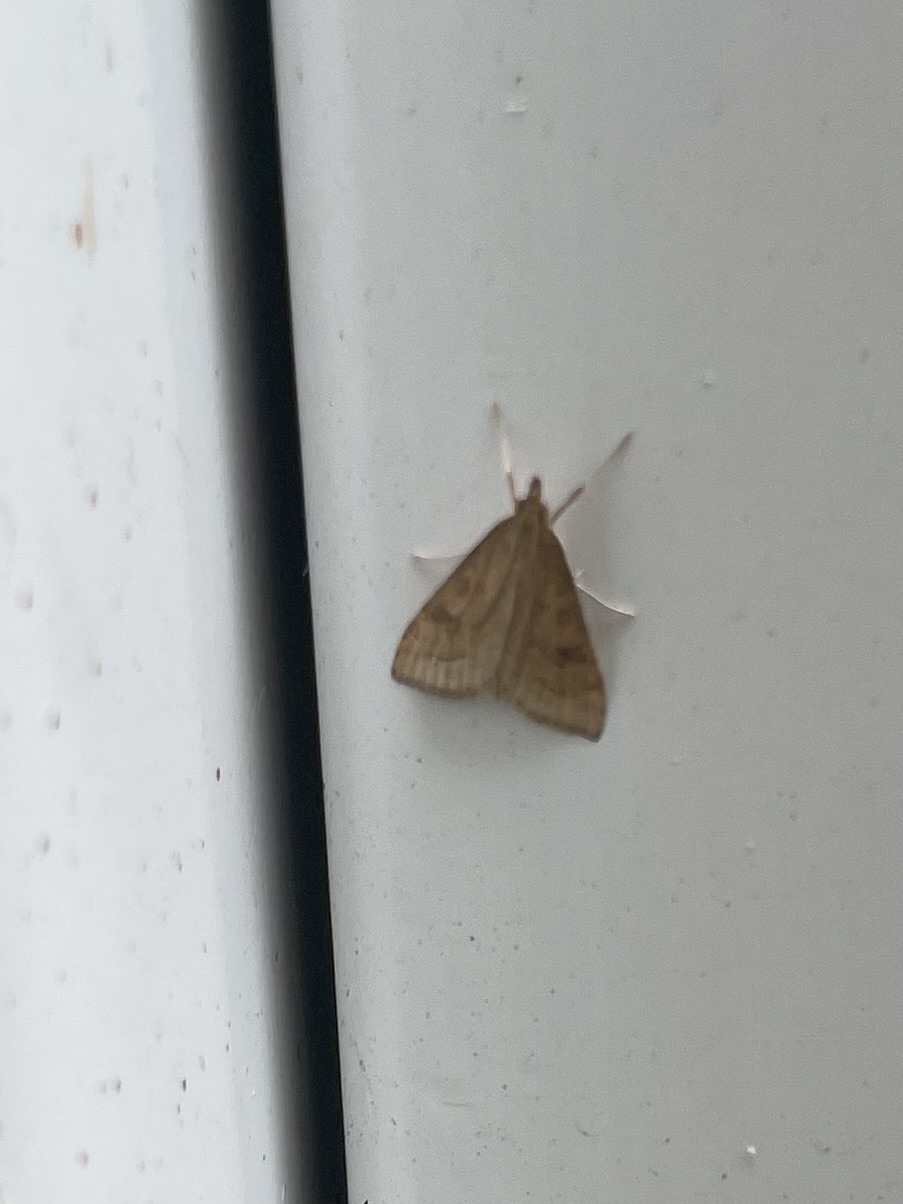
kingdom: Animalia
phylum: Arthropoda
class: Insecta
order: Lepidoptera
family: Crambidae
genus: Udea
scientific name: Udea rubigalis
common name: Celery leaftier moth
